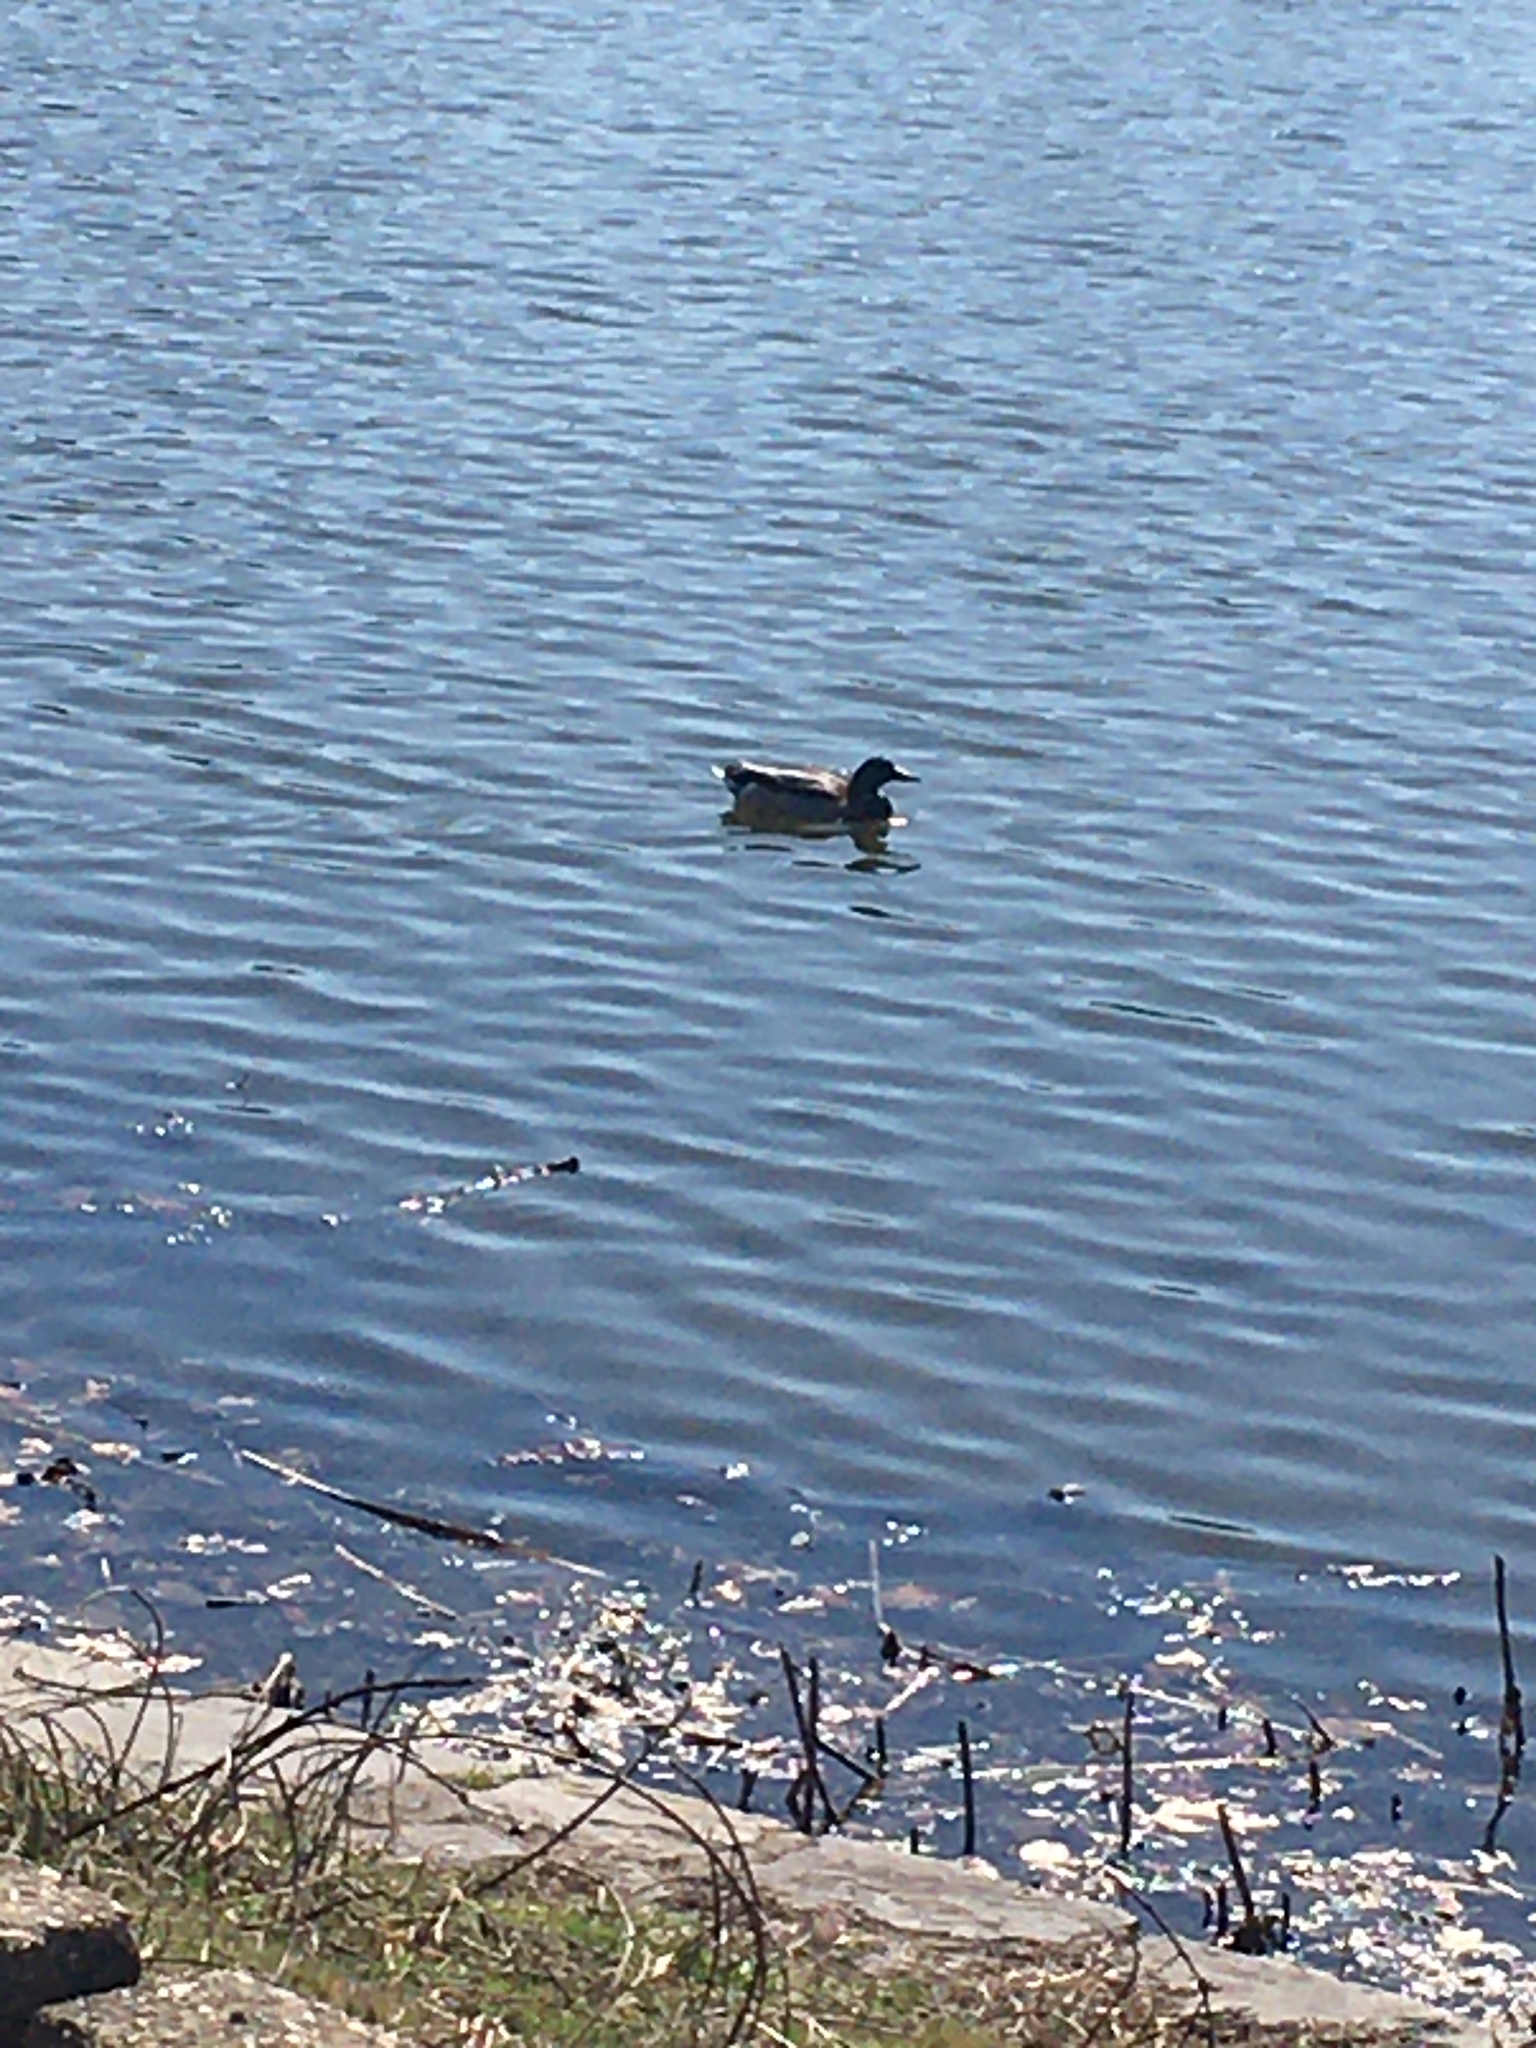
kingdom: Animalia
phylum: Chordata
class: Aves
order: Anseriformes
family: Anatidae
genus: Anas
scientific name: Anas platyrhynchos
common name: Mallard
